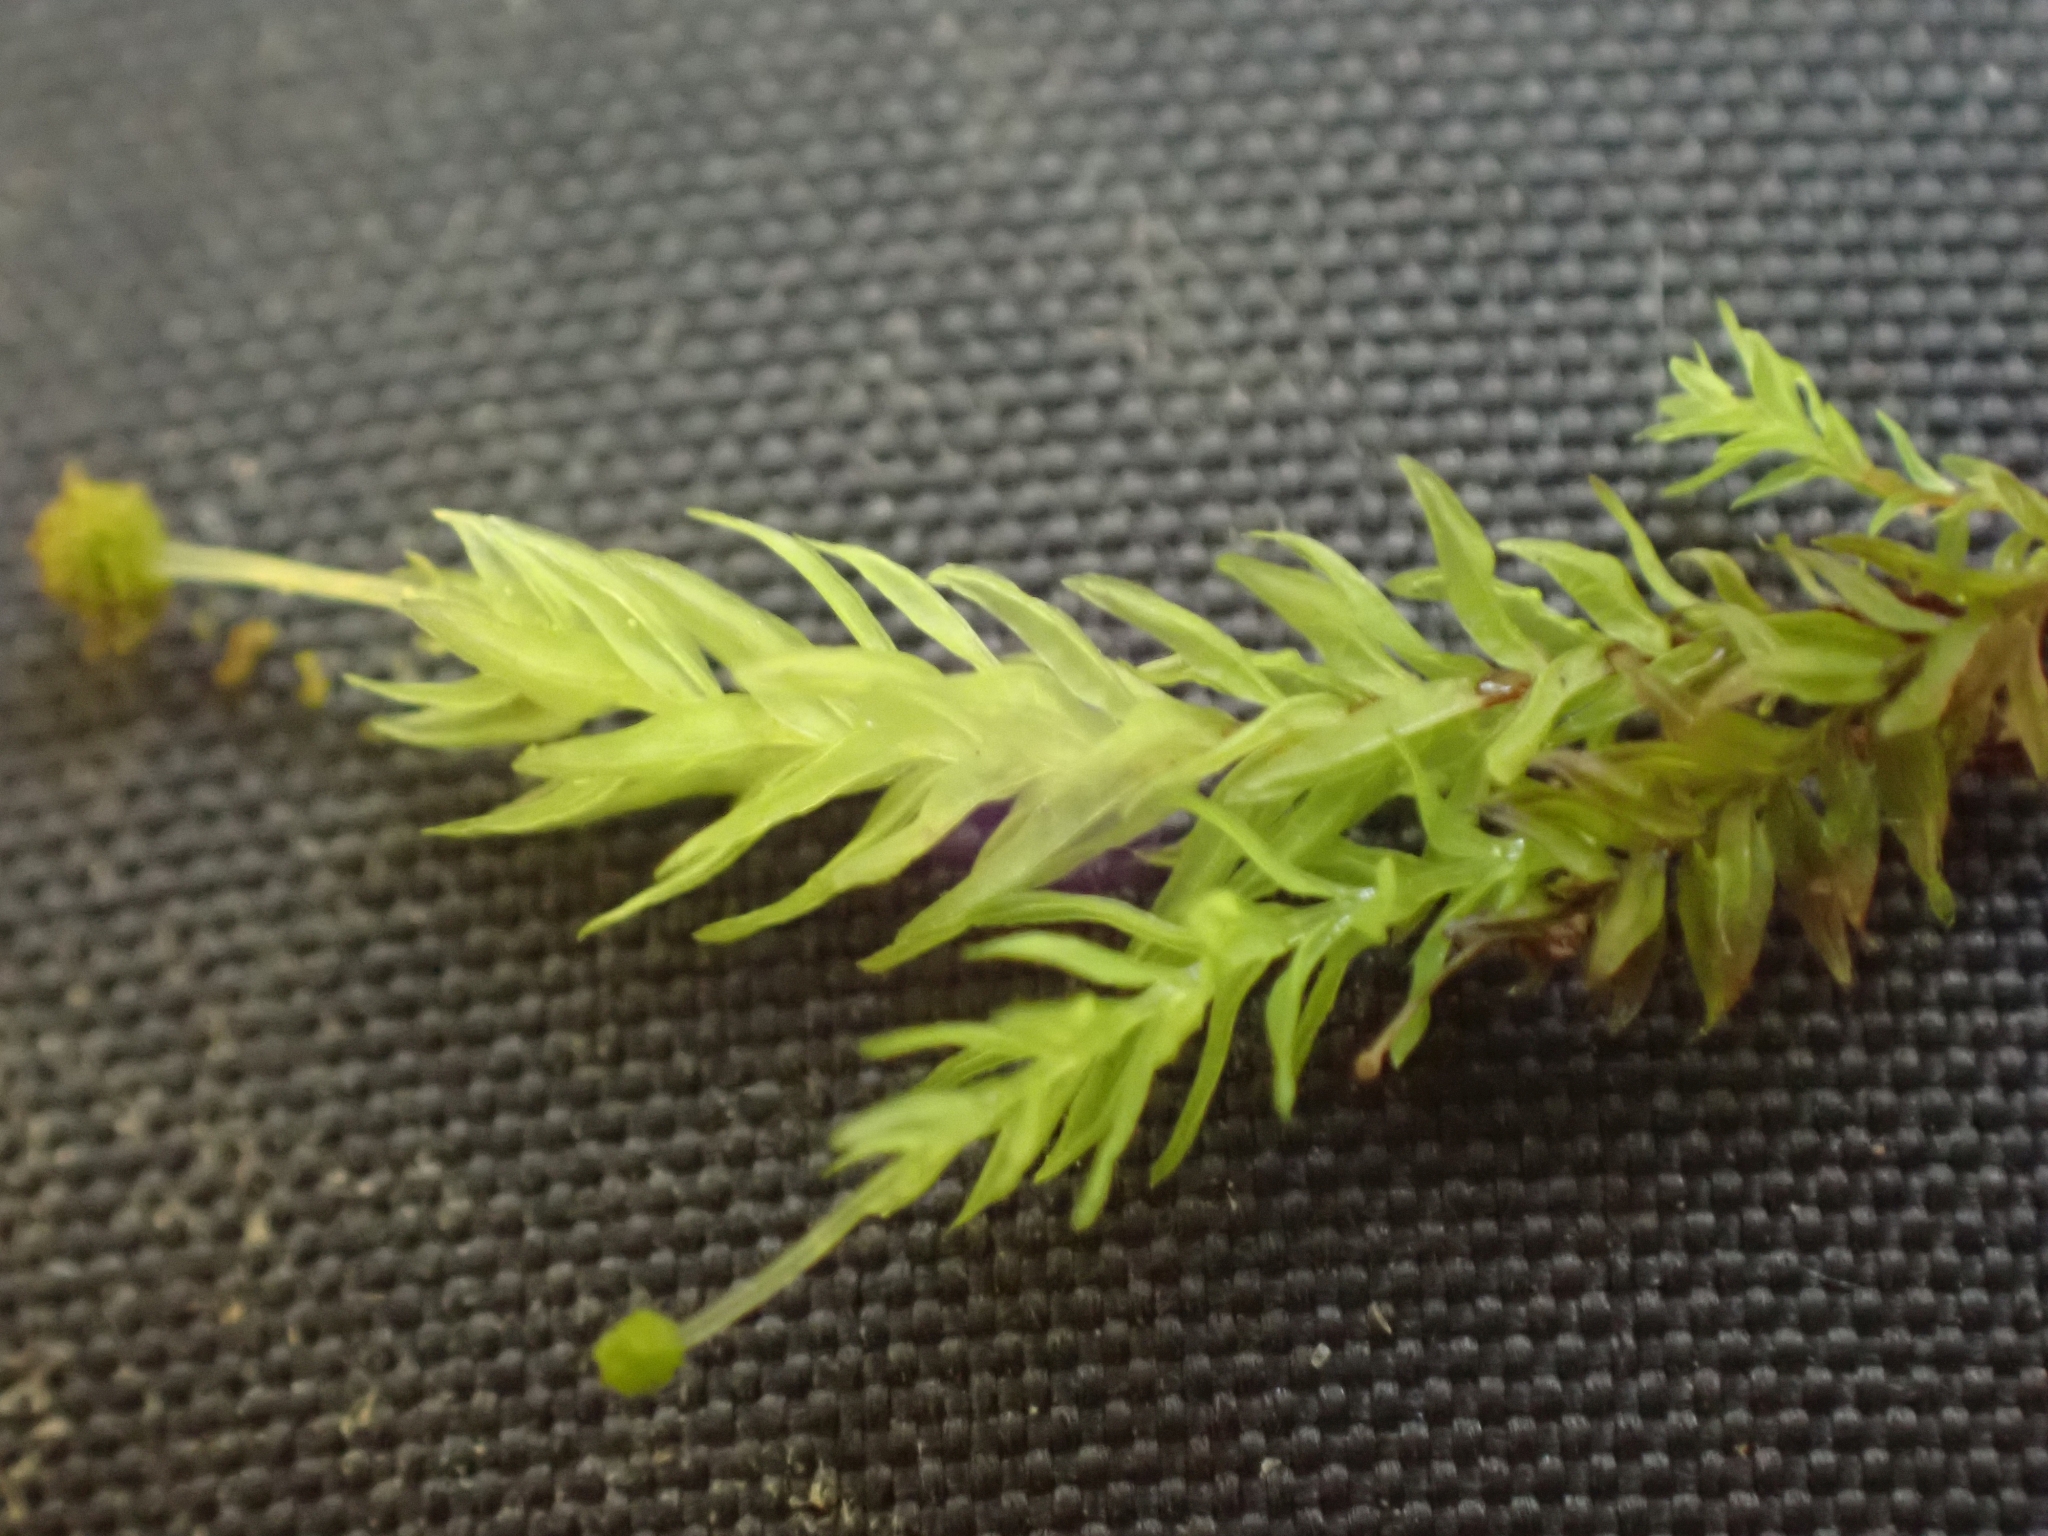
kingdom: Plantae
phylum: Bryophyta
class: Bryopsida
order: Aulacomniales
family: Aulacomniaceae
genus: Aulacomnium
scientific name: Aulacomnium androgynum
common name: Little groove moss
